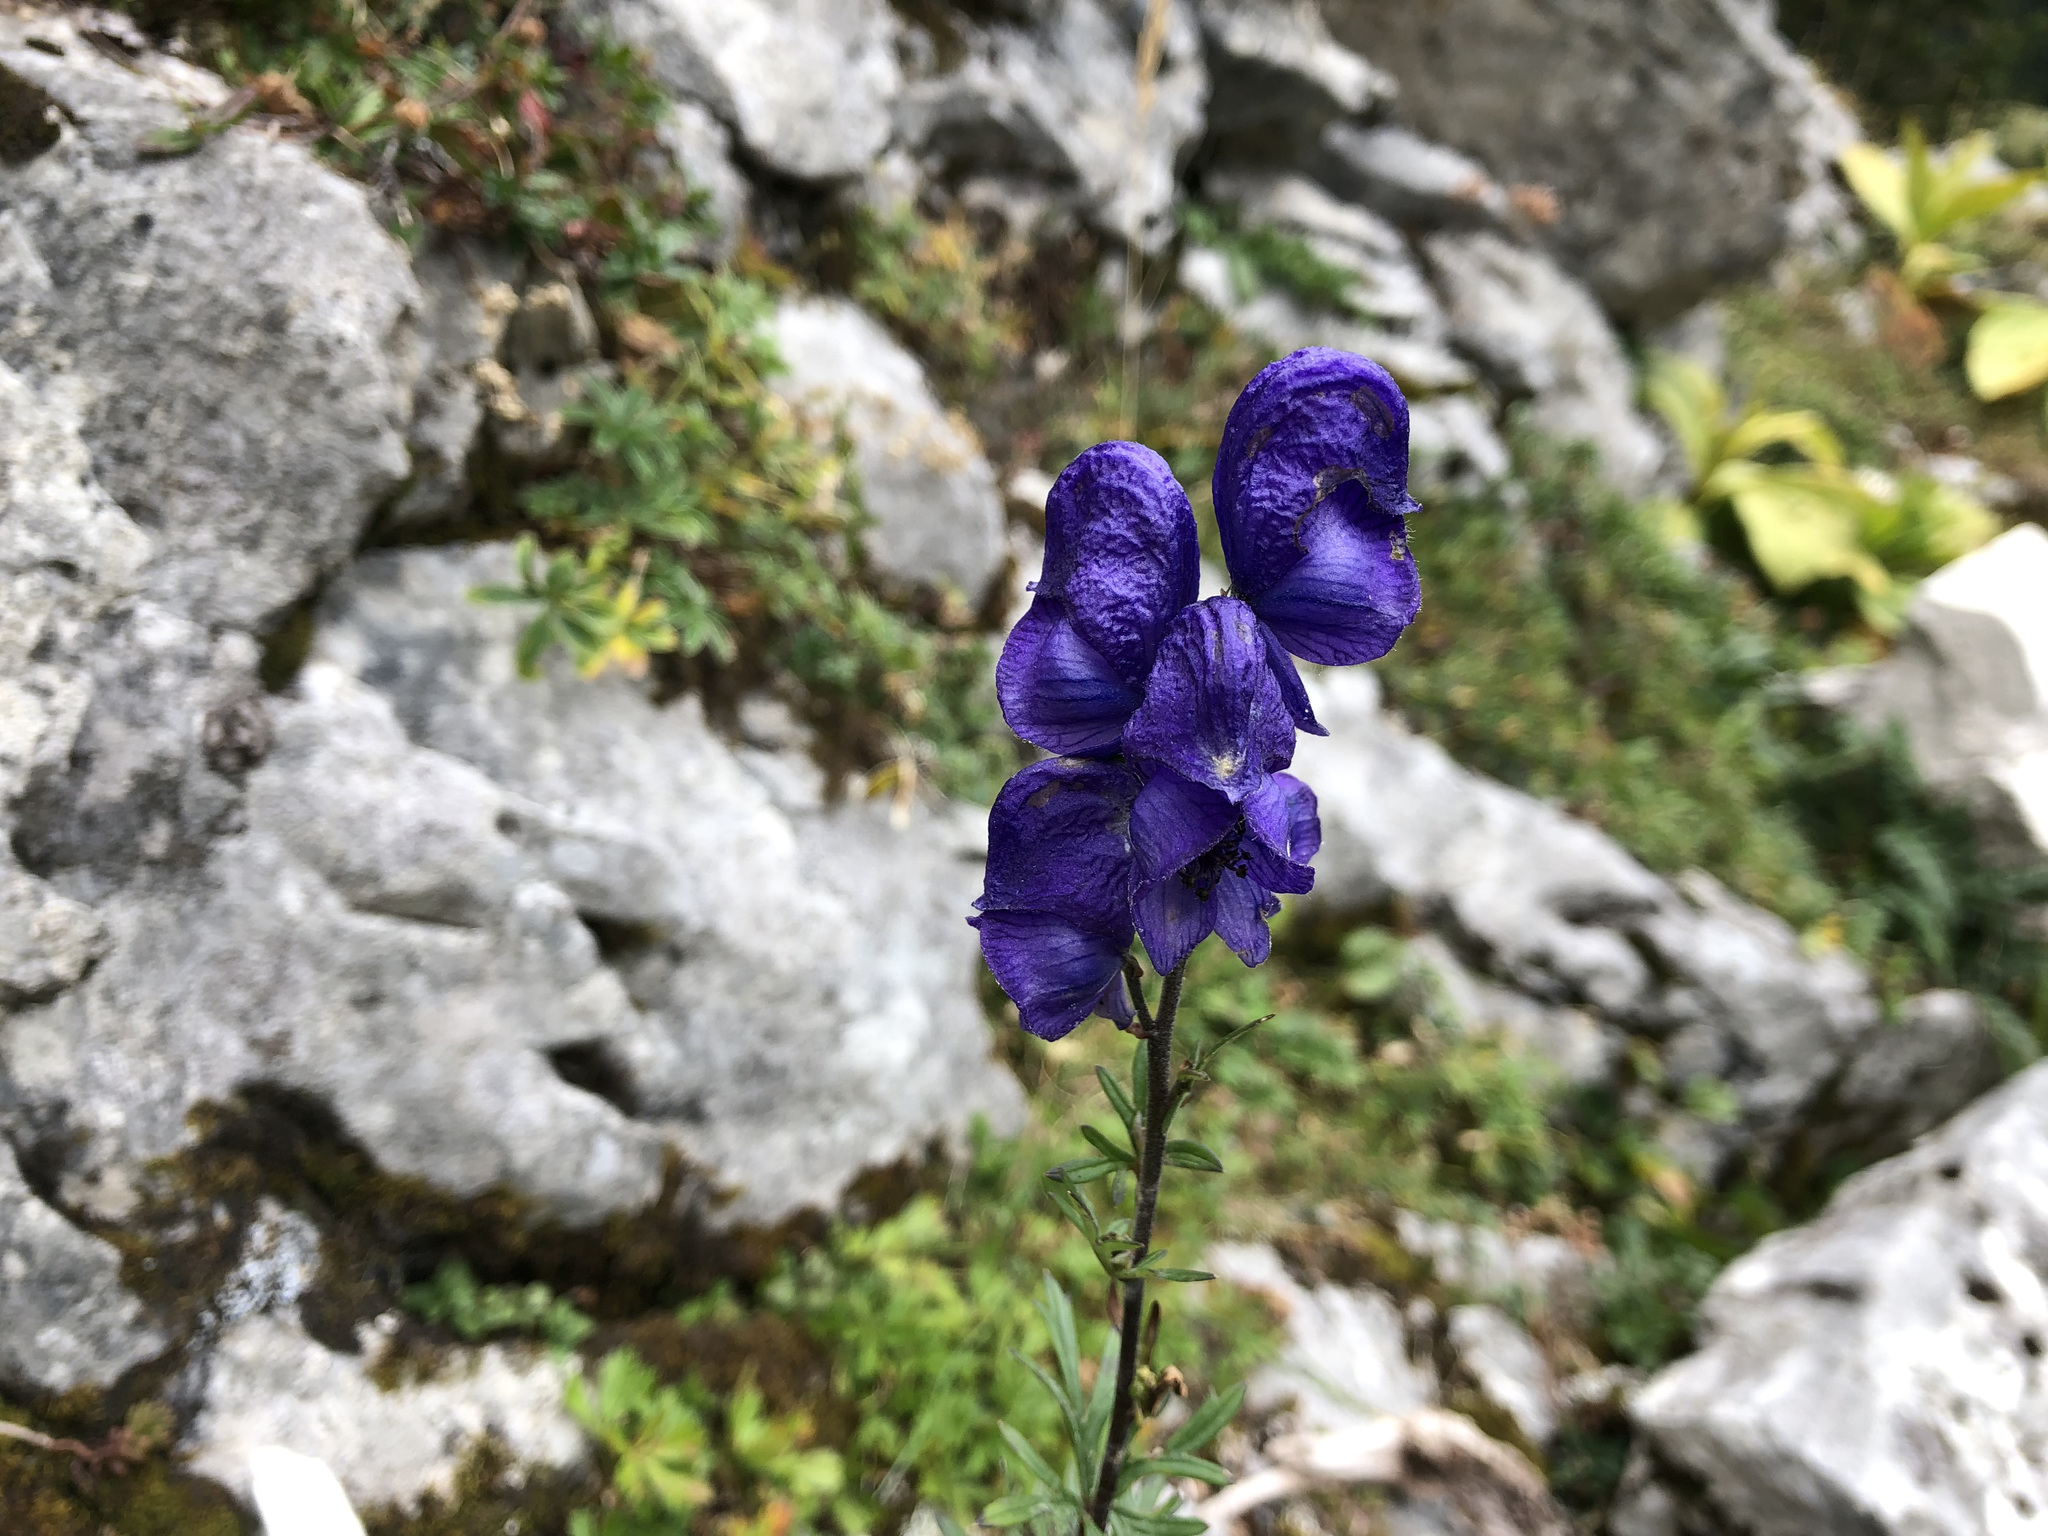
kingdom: Plantae
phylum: Tracheophyta
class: Magnoliopsida
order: Ranunculales
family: Ranunculaceae
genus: Aconitum
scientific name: Aconitum napellus
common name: Garden monkshood
